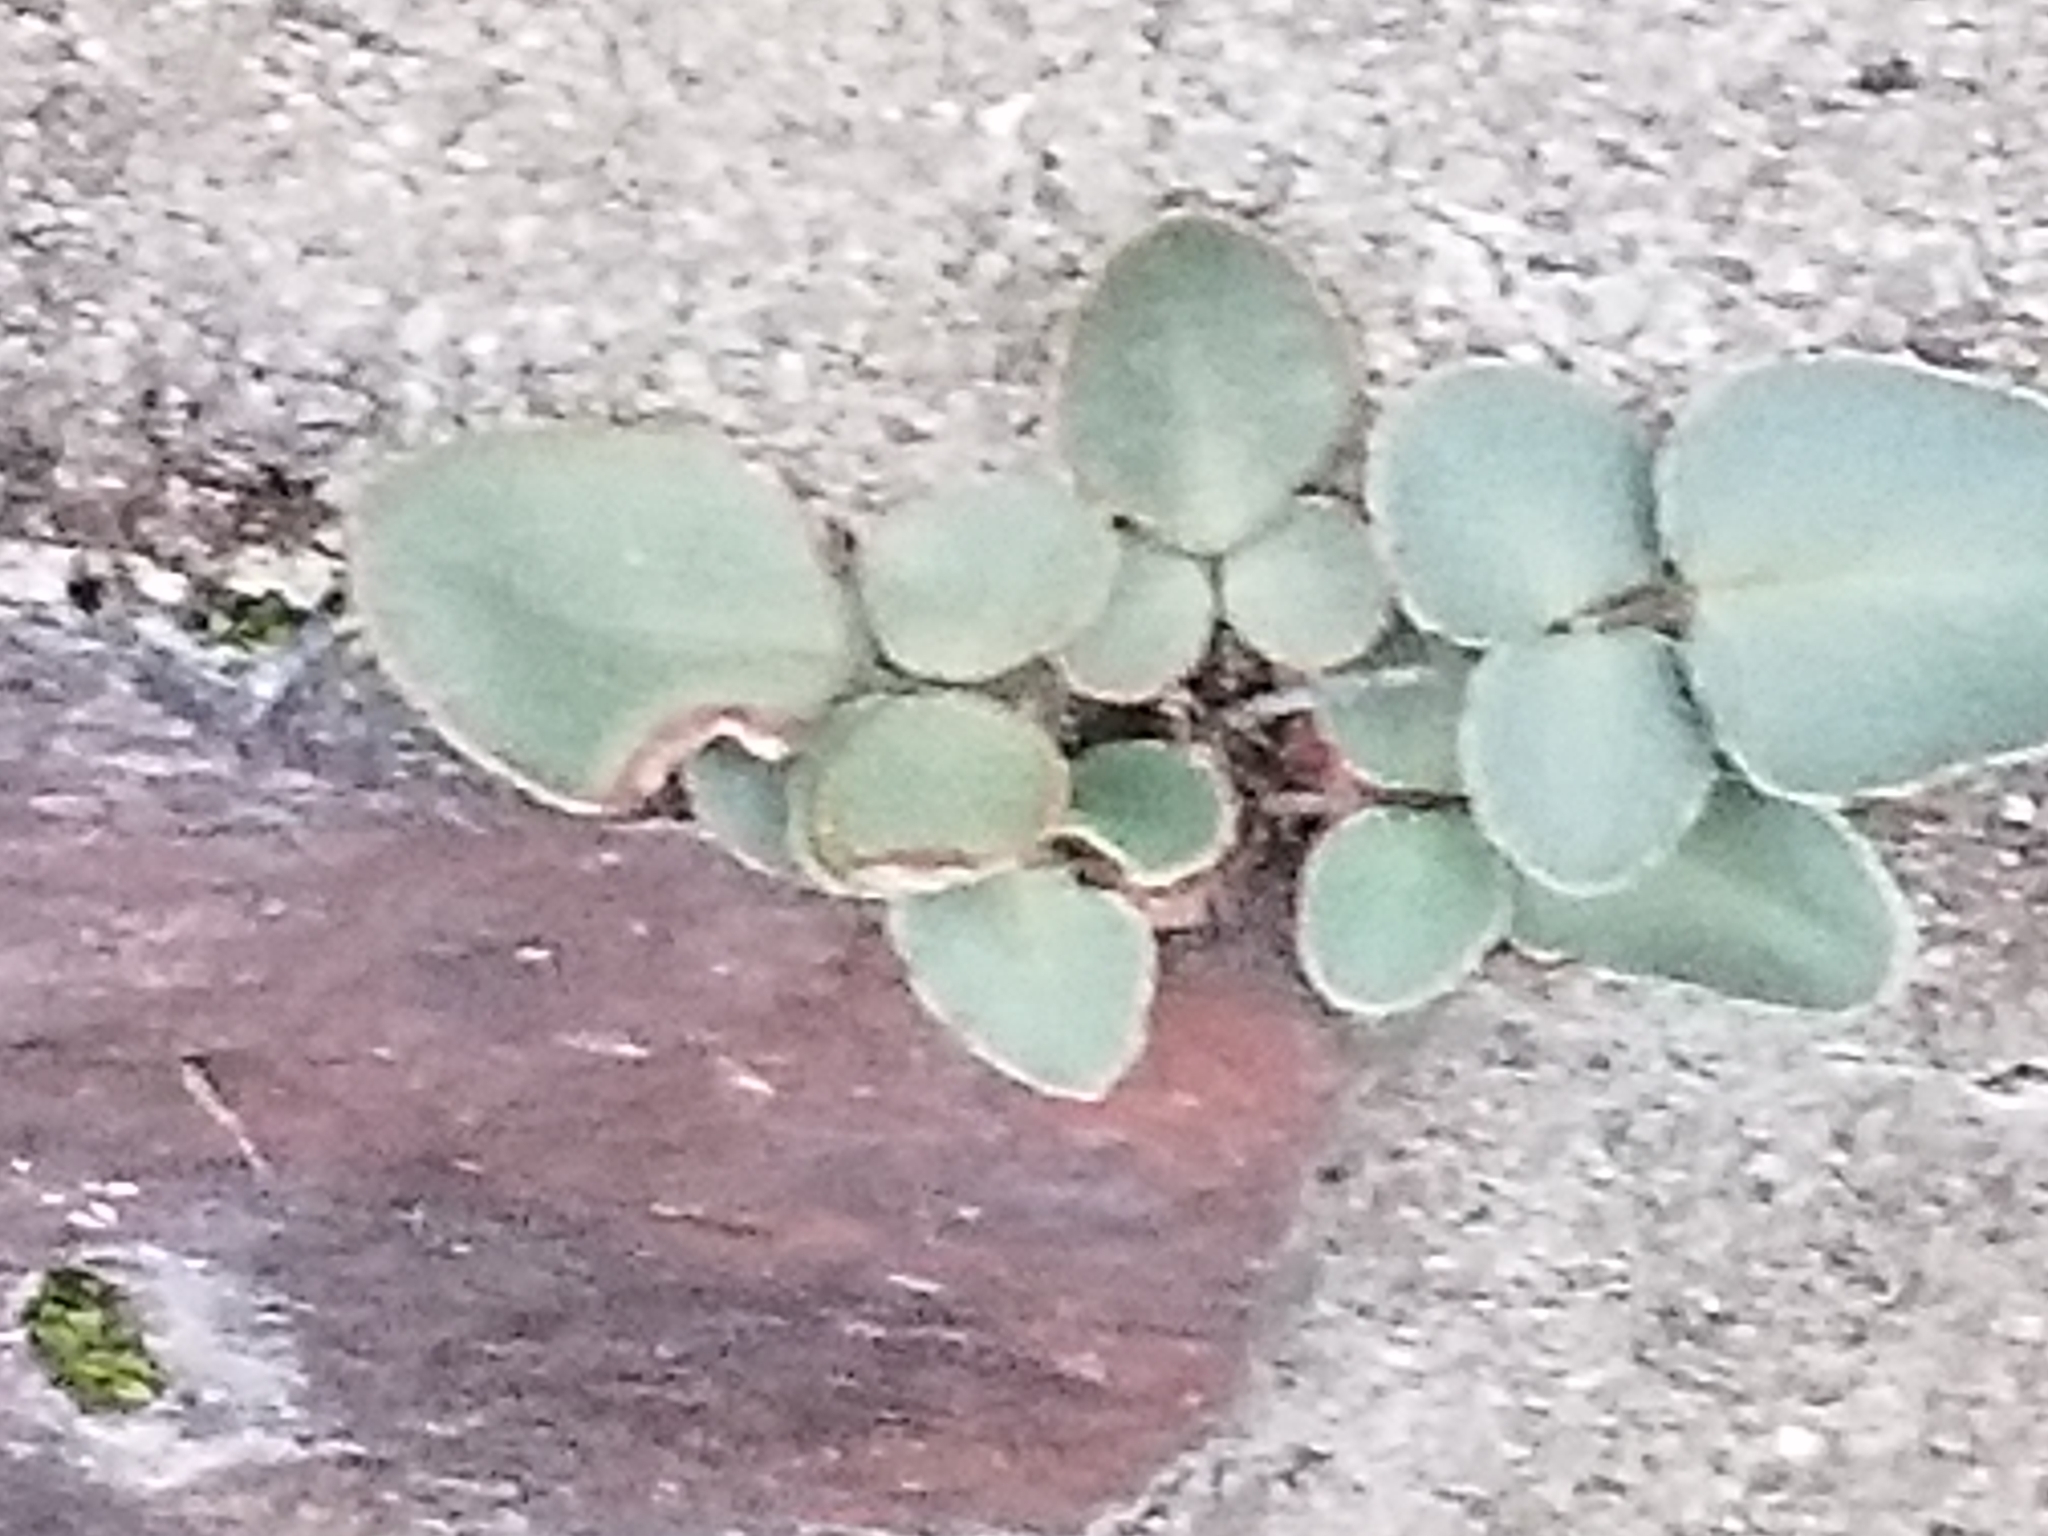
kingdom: Plantae
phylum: Tracheophyta
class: Polypodiopsida
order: Polypodiales
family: Pteridaceae
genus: Pellaea
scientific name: Pellaea atropurpurea
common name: Hairy cliffbrake
